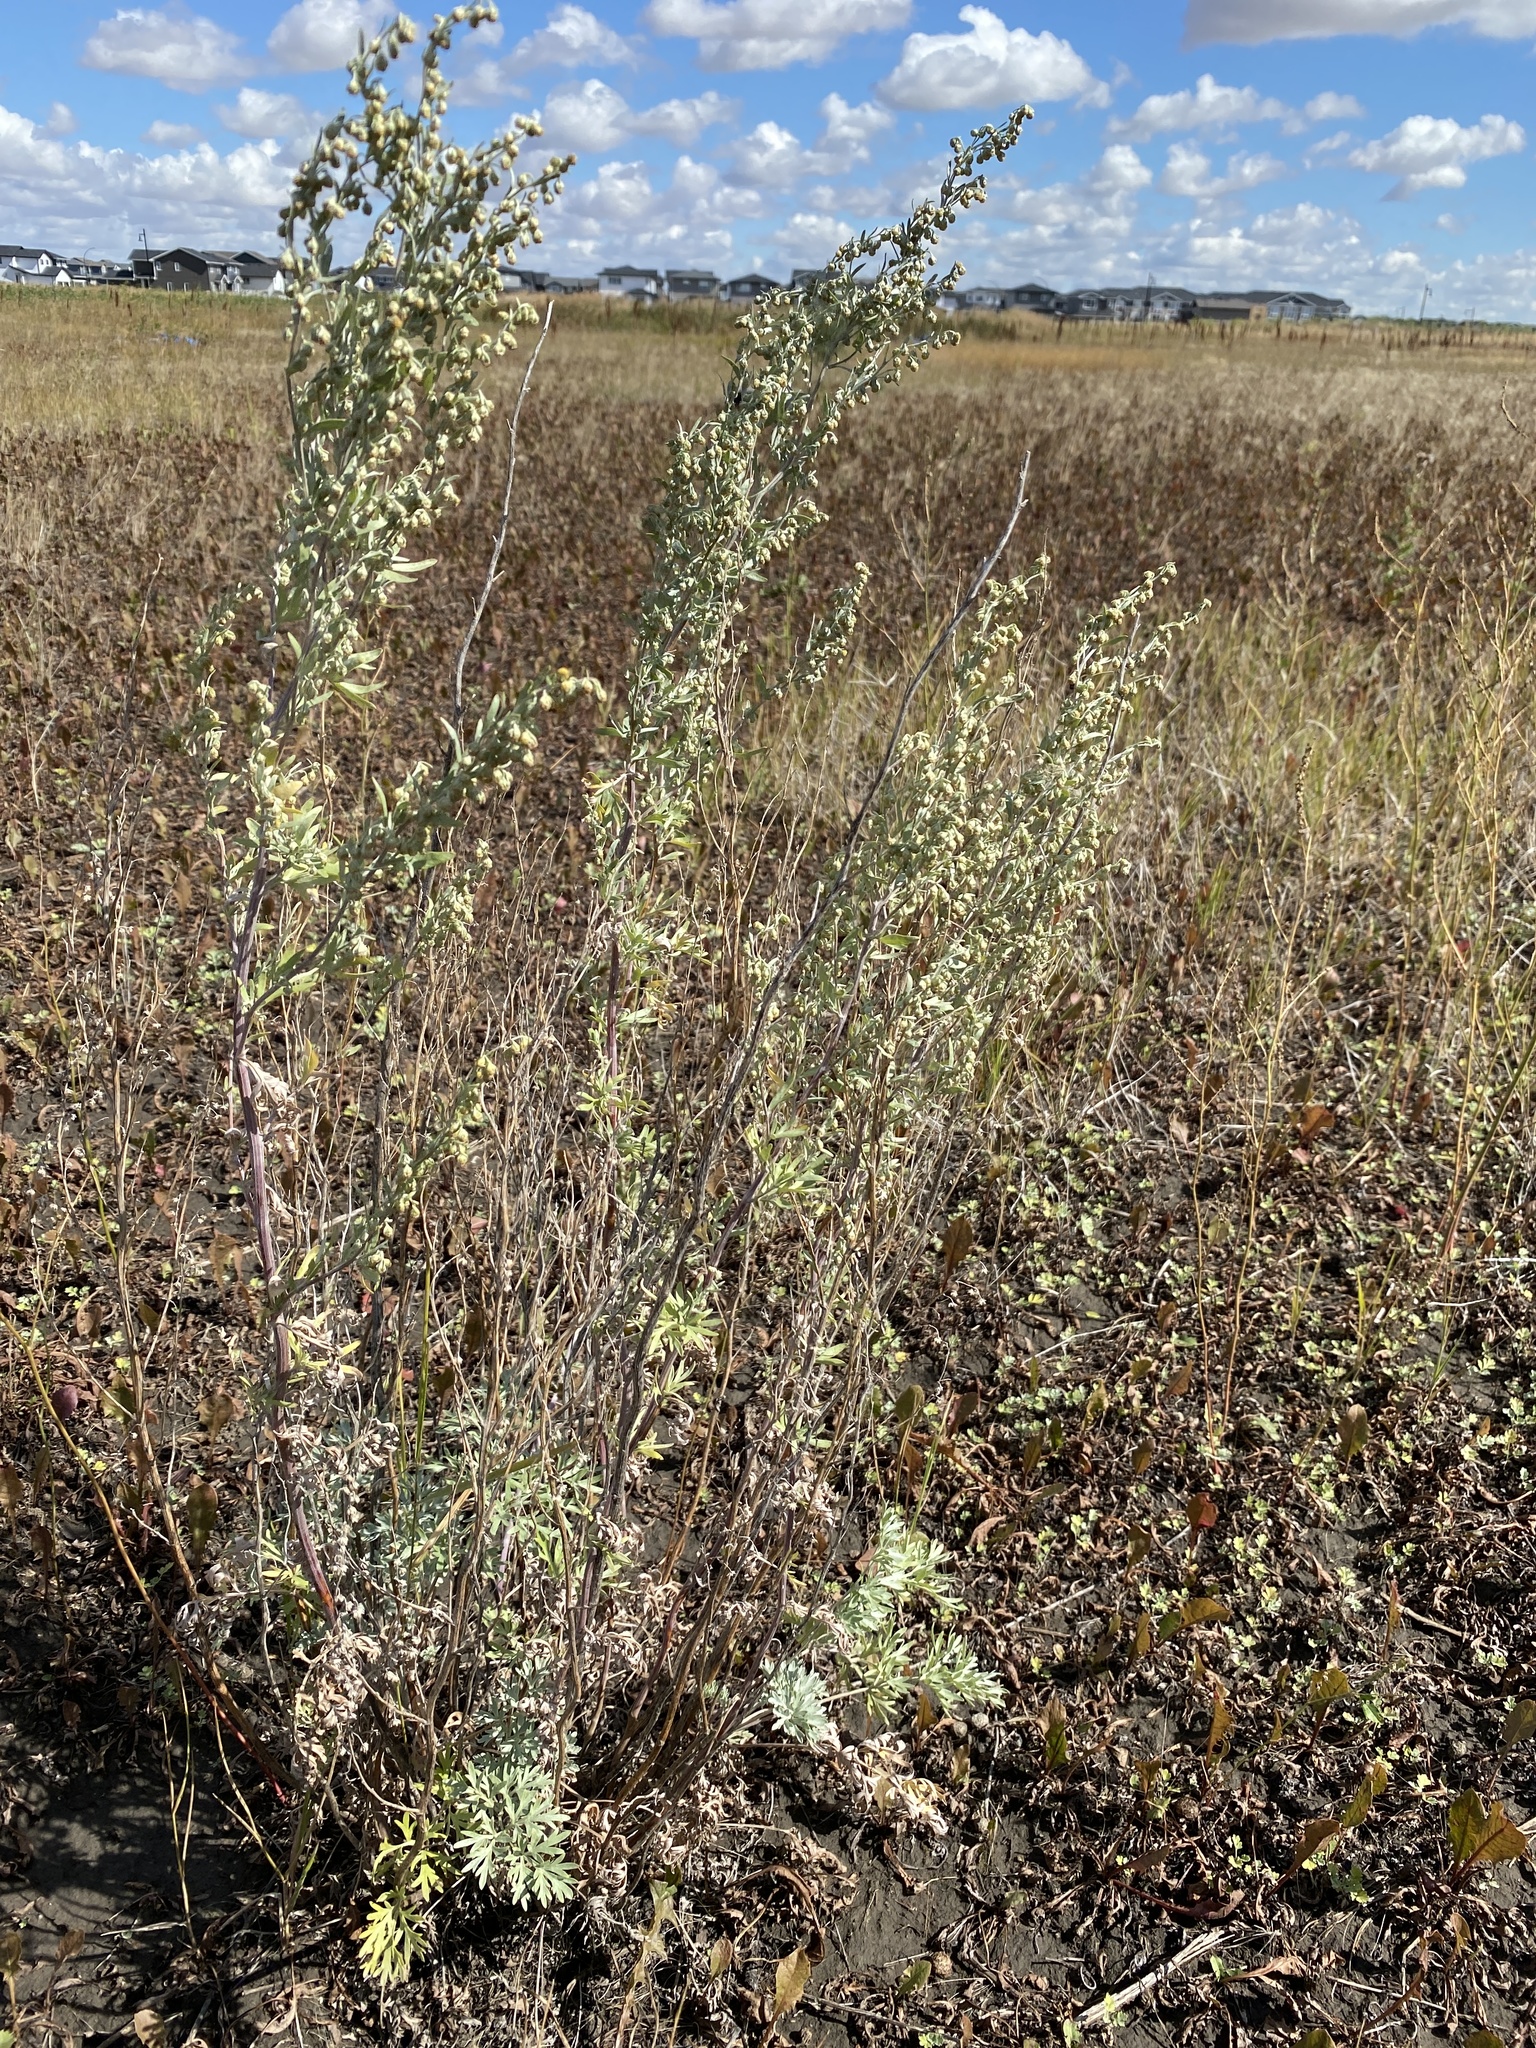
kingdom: Plantae
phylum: Tracheophyta
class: Magnoliopsida
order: Asterales
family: Asteraceae
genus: Artemisia
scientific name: Artemisia absinthium
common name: Wormwood
